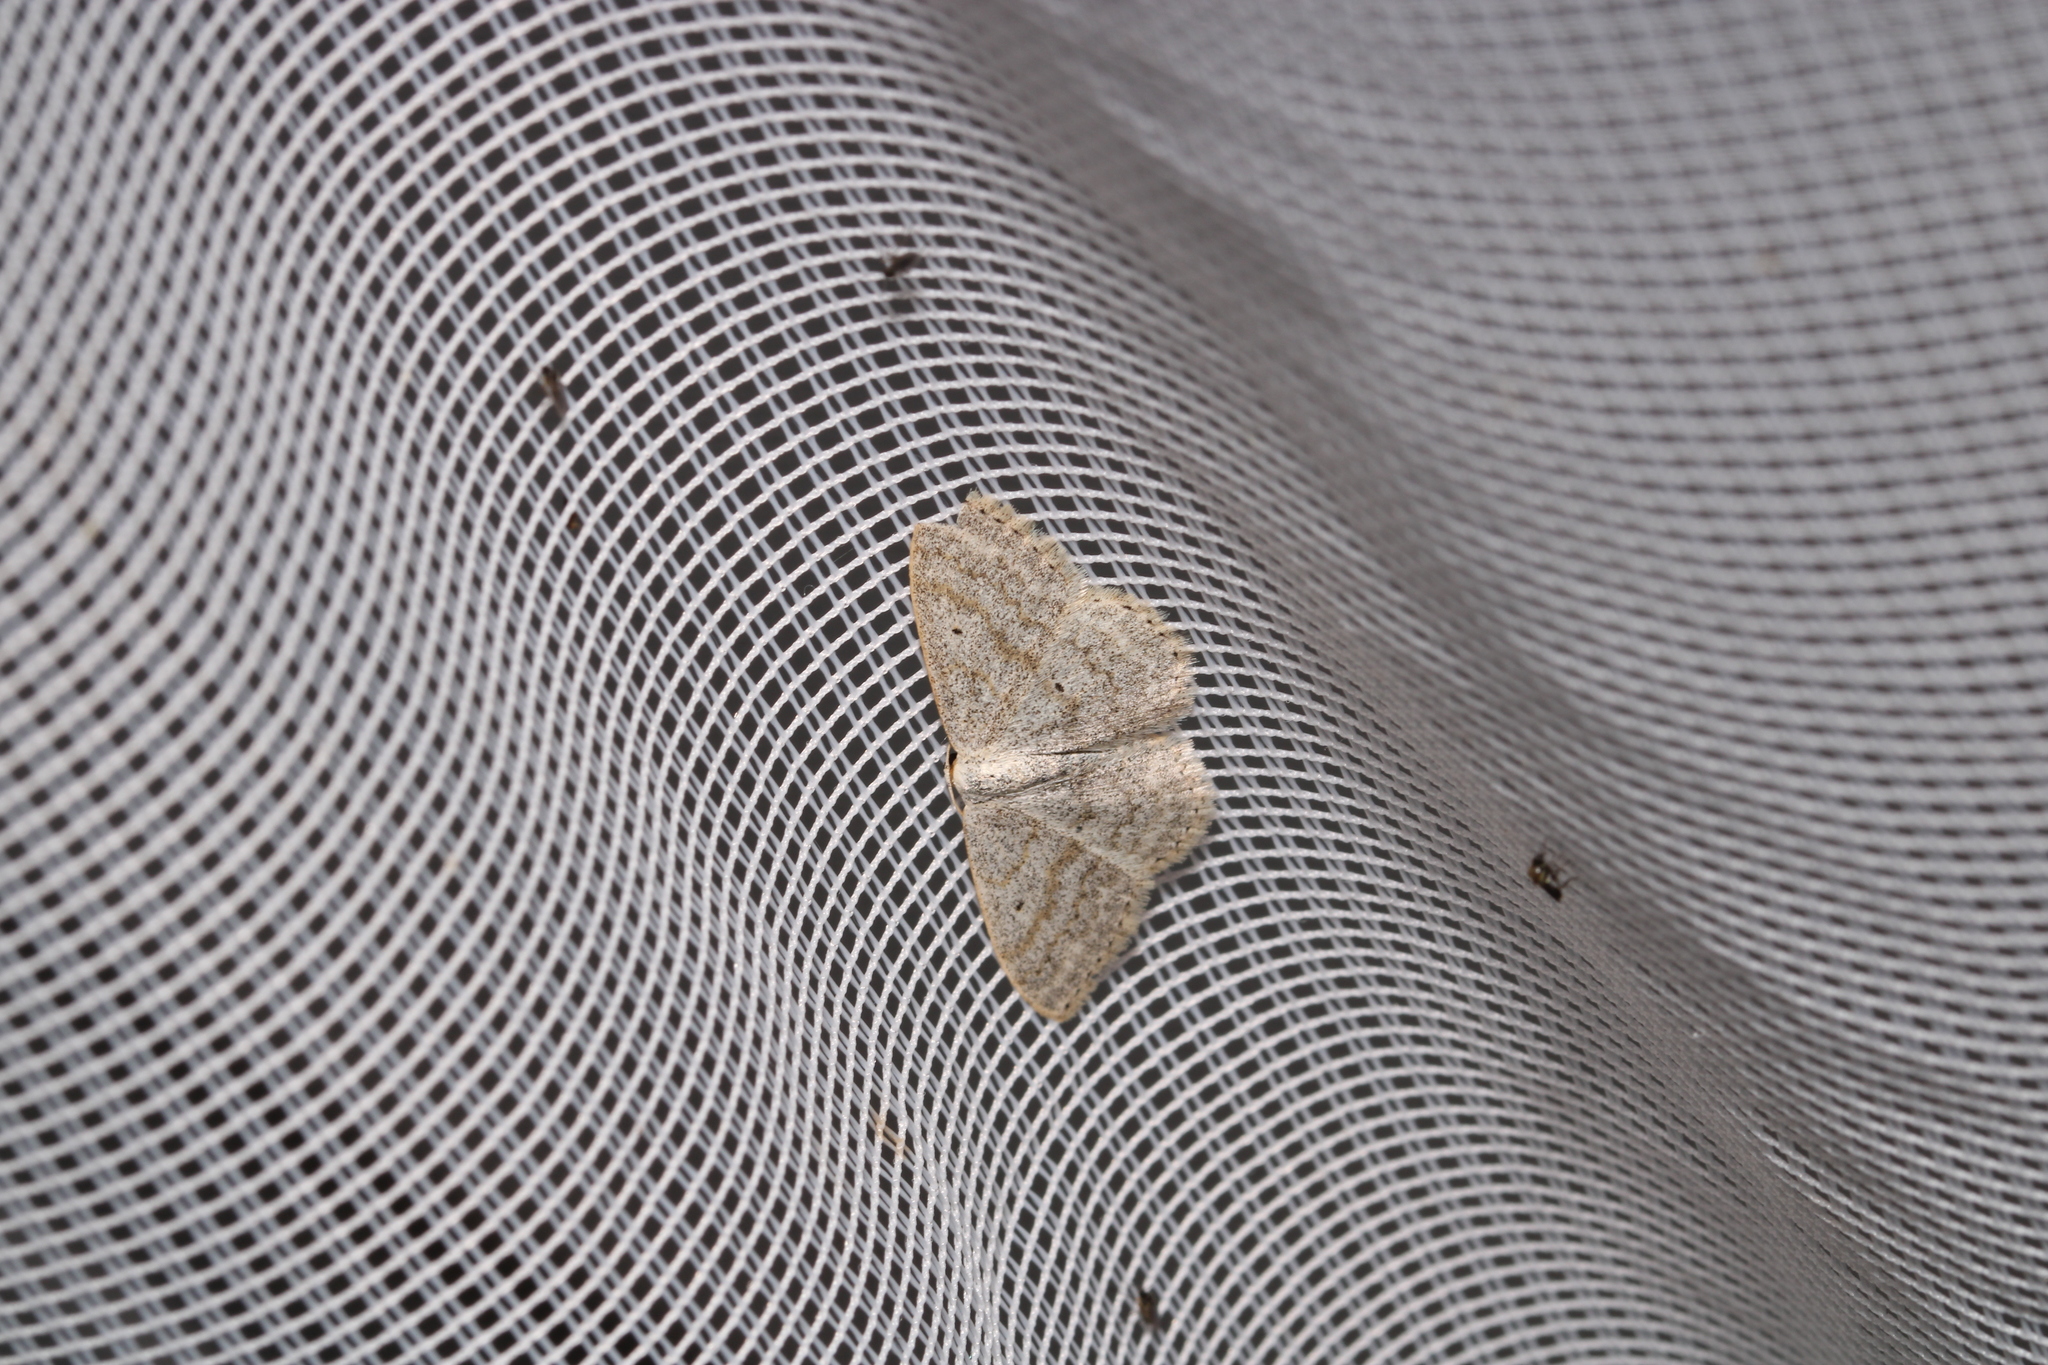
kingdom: Animalia
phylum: Arthropoda
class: Insecta
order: Lepidoptera
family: Geometridae
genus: Scopula
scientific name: Scopula incanata
